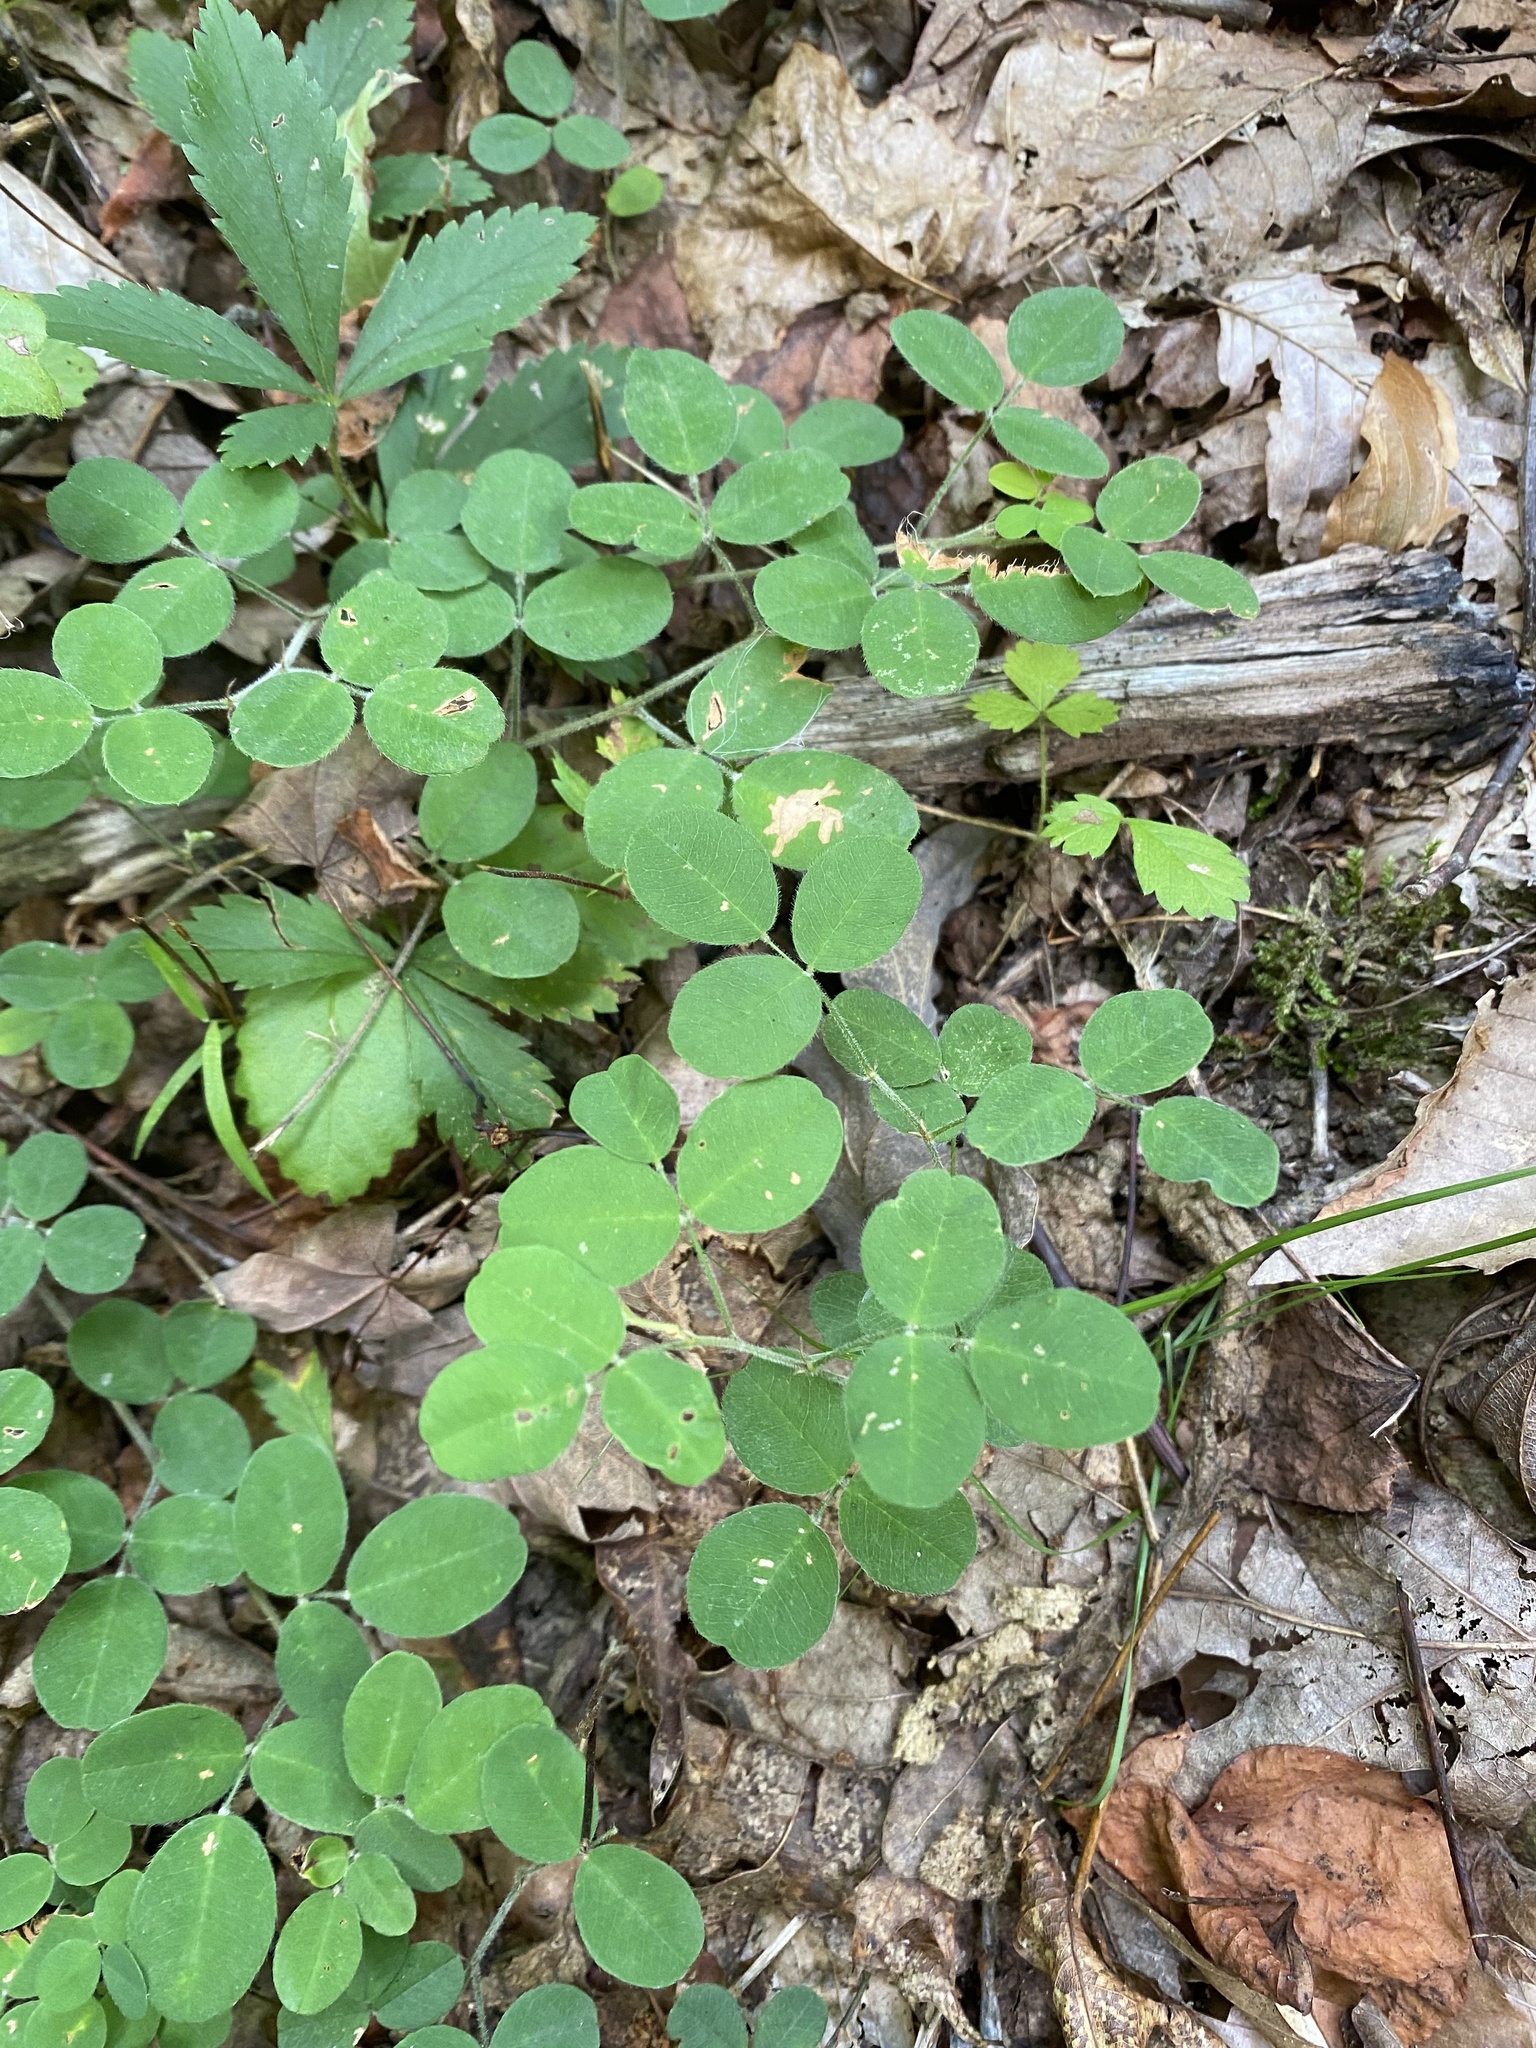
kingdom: Plantae
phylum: Tracheophyta
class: Magnoliopsida
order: Fabales
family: Fabaceae
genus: Lespedeza
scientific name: Lespedeza procumbens
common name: Downy trailing bush-clover
